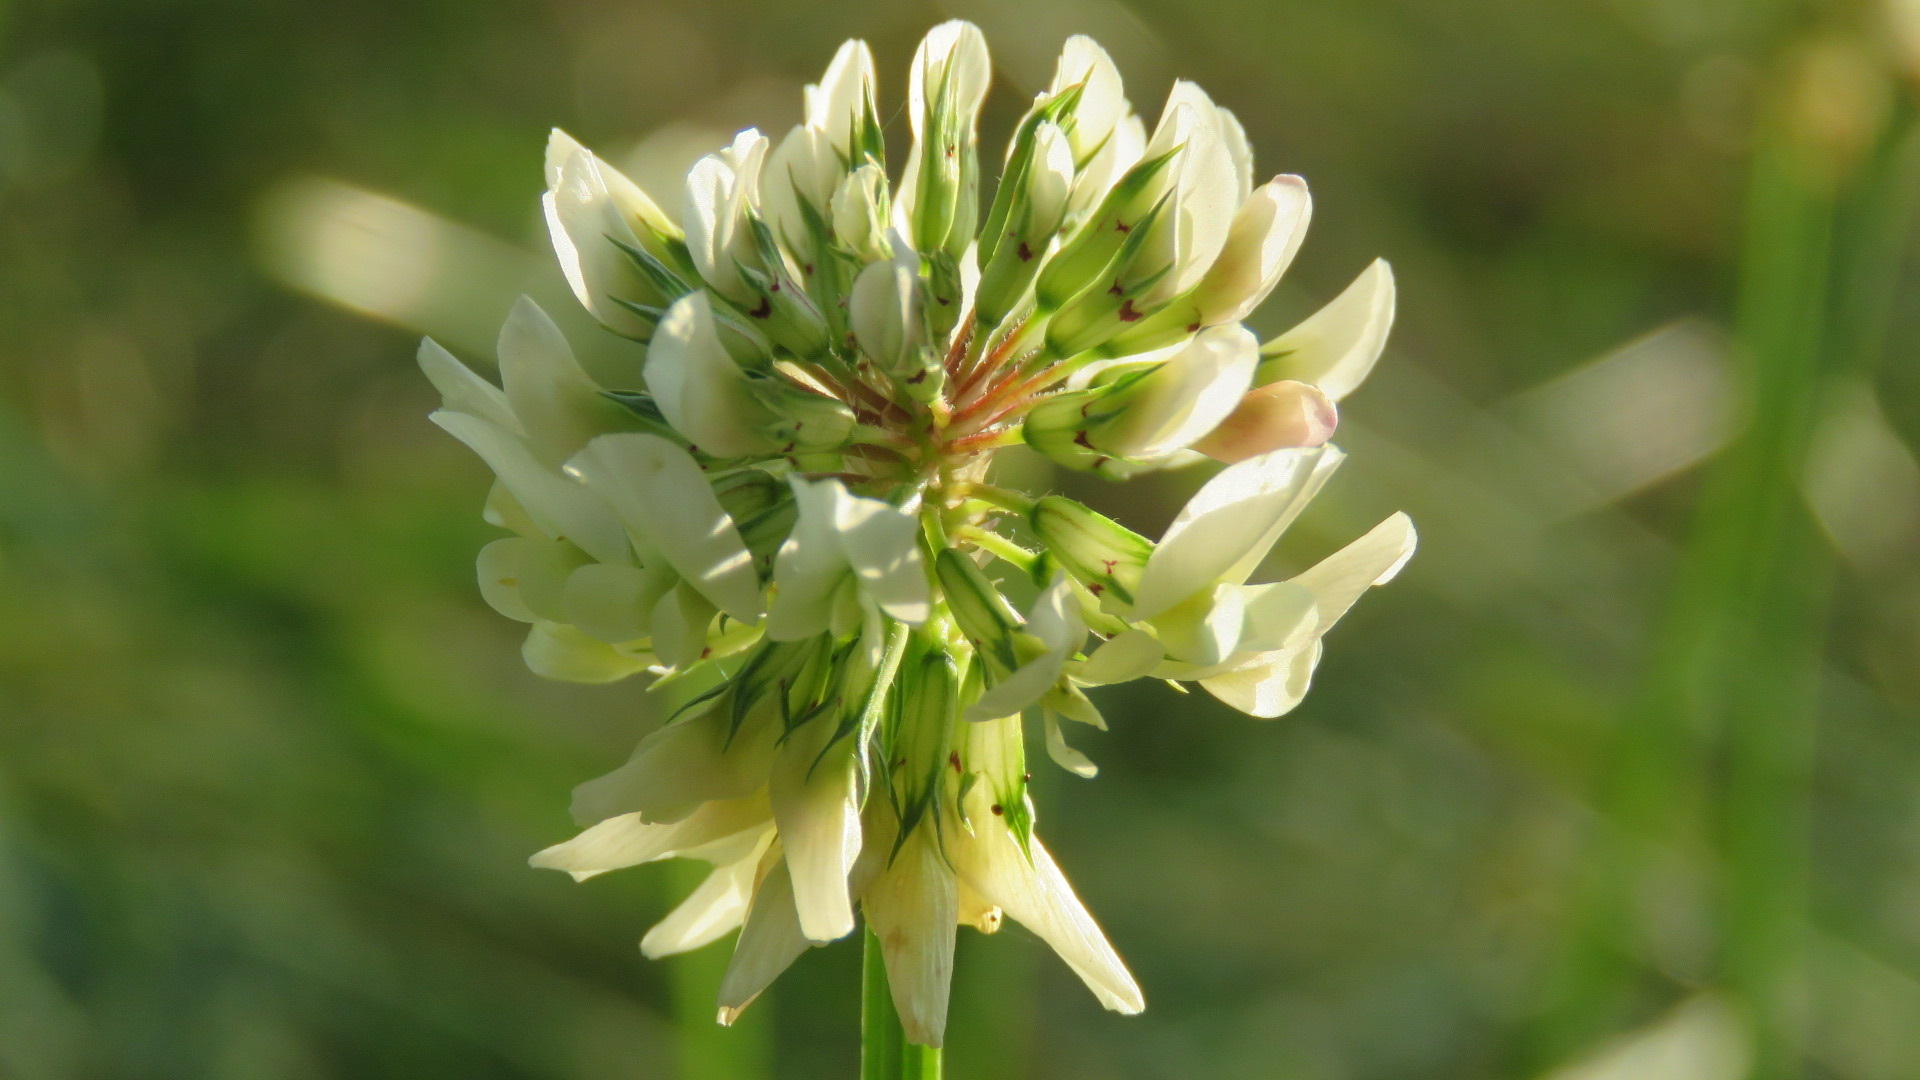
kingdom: Plantae
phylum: Tracheophyta
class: Magnoliopsida
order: Fabales
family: Fabaceae
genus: Trifolium
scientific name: Trifolium repens
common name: White clover
